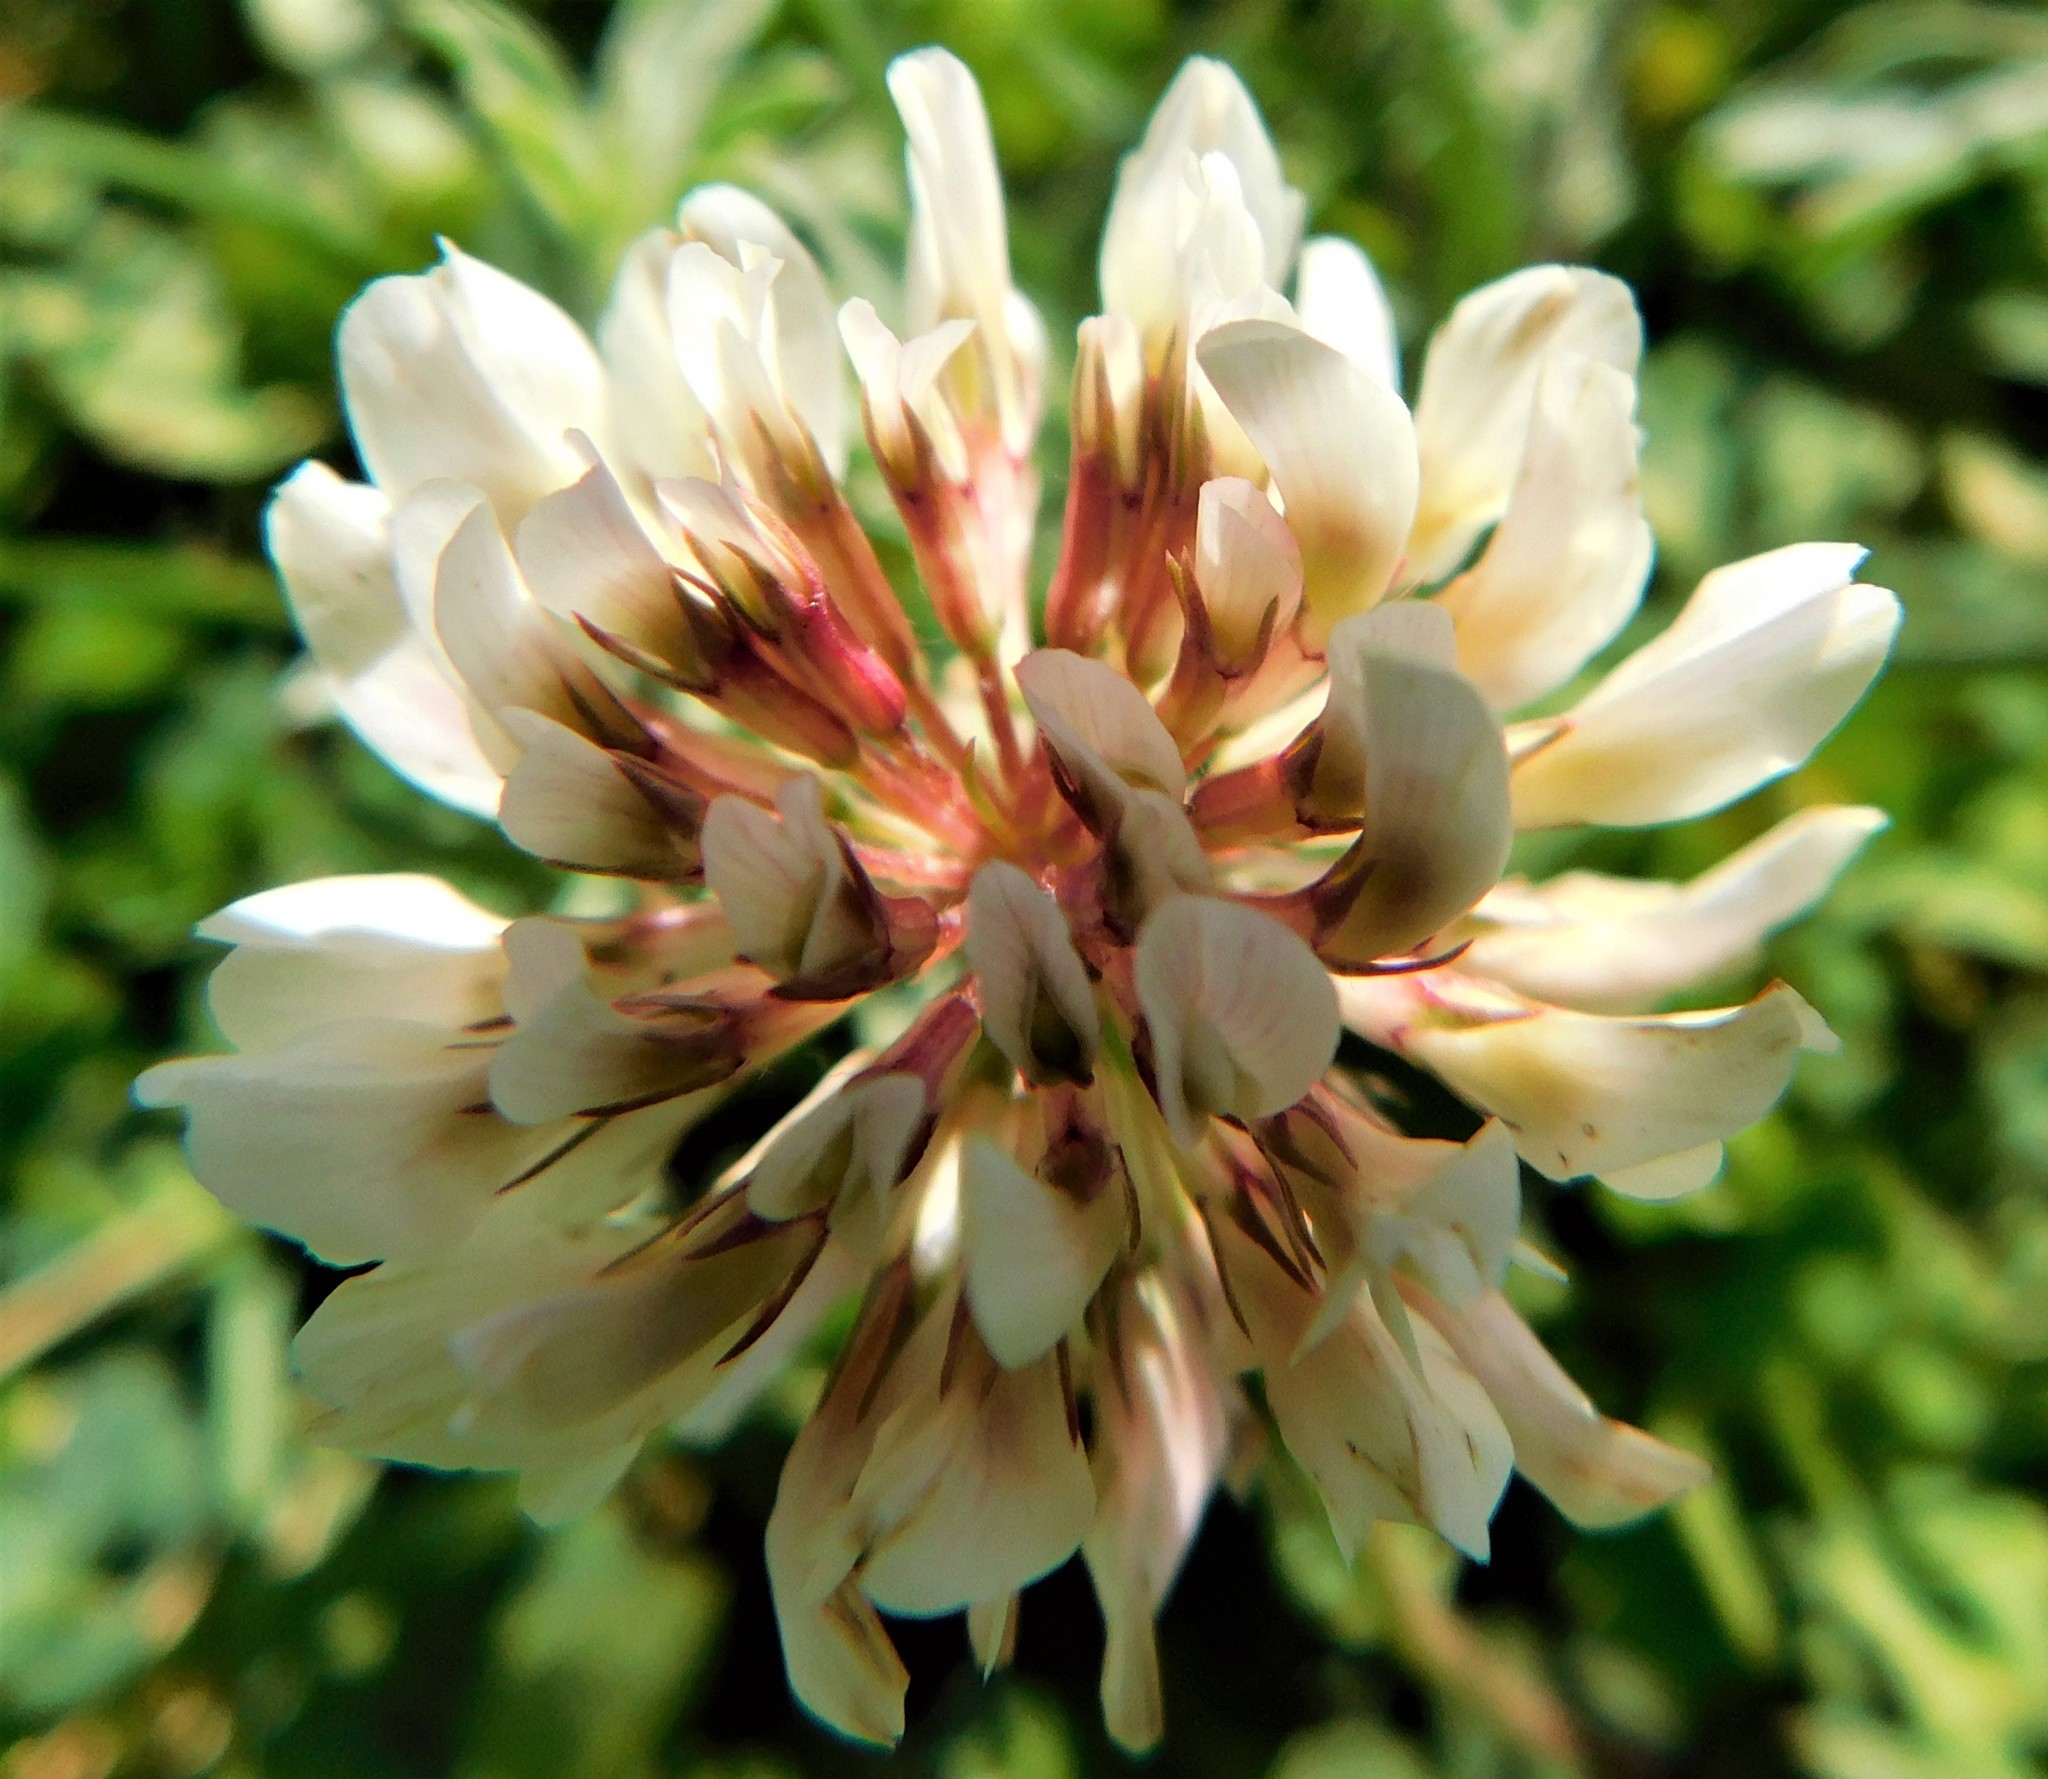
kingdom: Plantae
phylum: Tracheophyta
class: Magnoliopsida
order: Fabales
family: Fabaceae
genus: Trifolium
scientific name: Trifolium repens
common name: White clover
